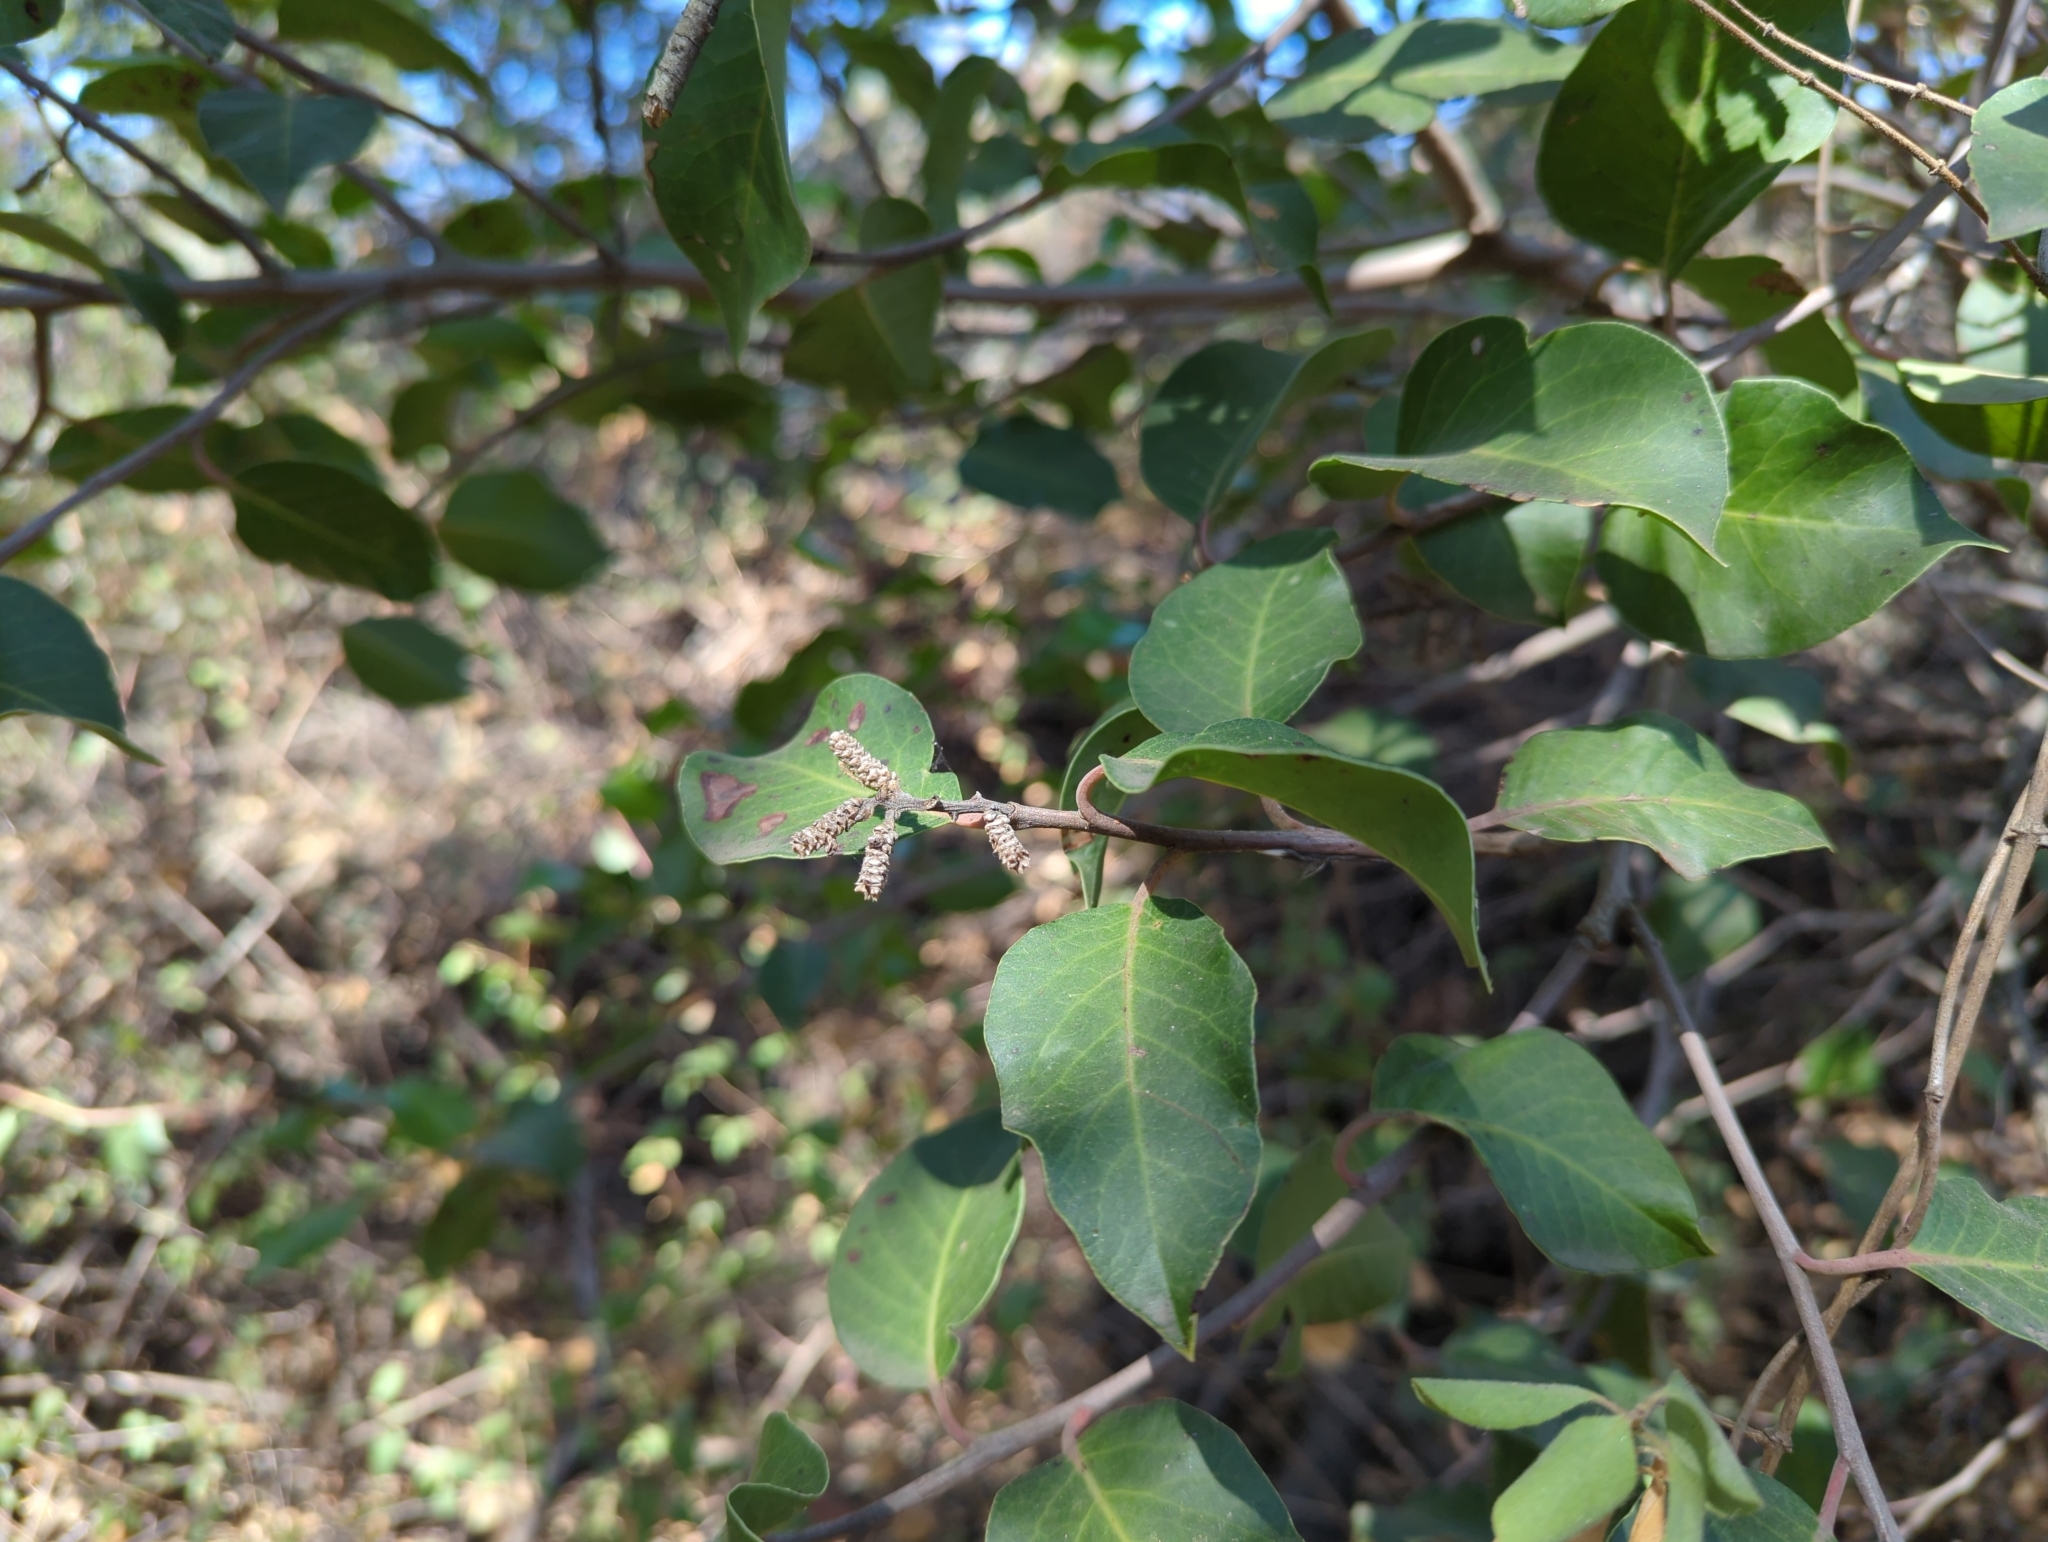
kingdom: Plantae
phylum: Tracheophyta
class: Magnoliopsida
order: Sapindales
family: Anacardiaceae
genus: Rhus
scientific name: Rhus ovata
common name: Sugar sumac
